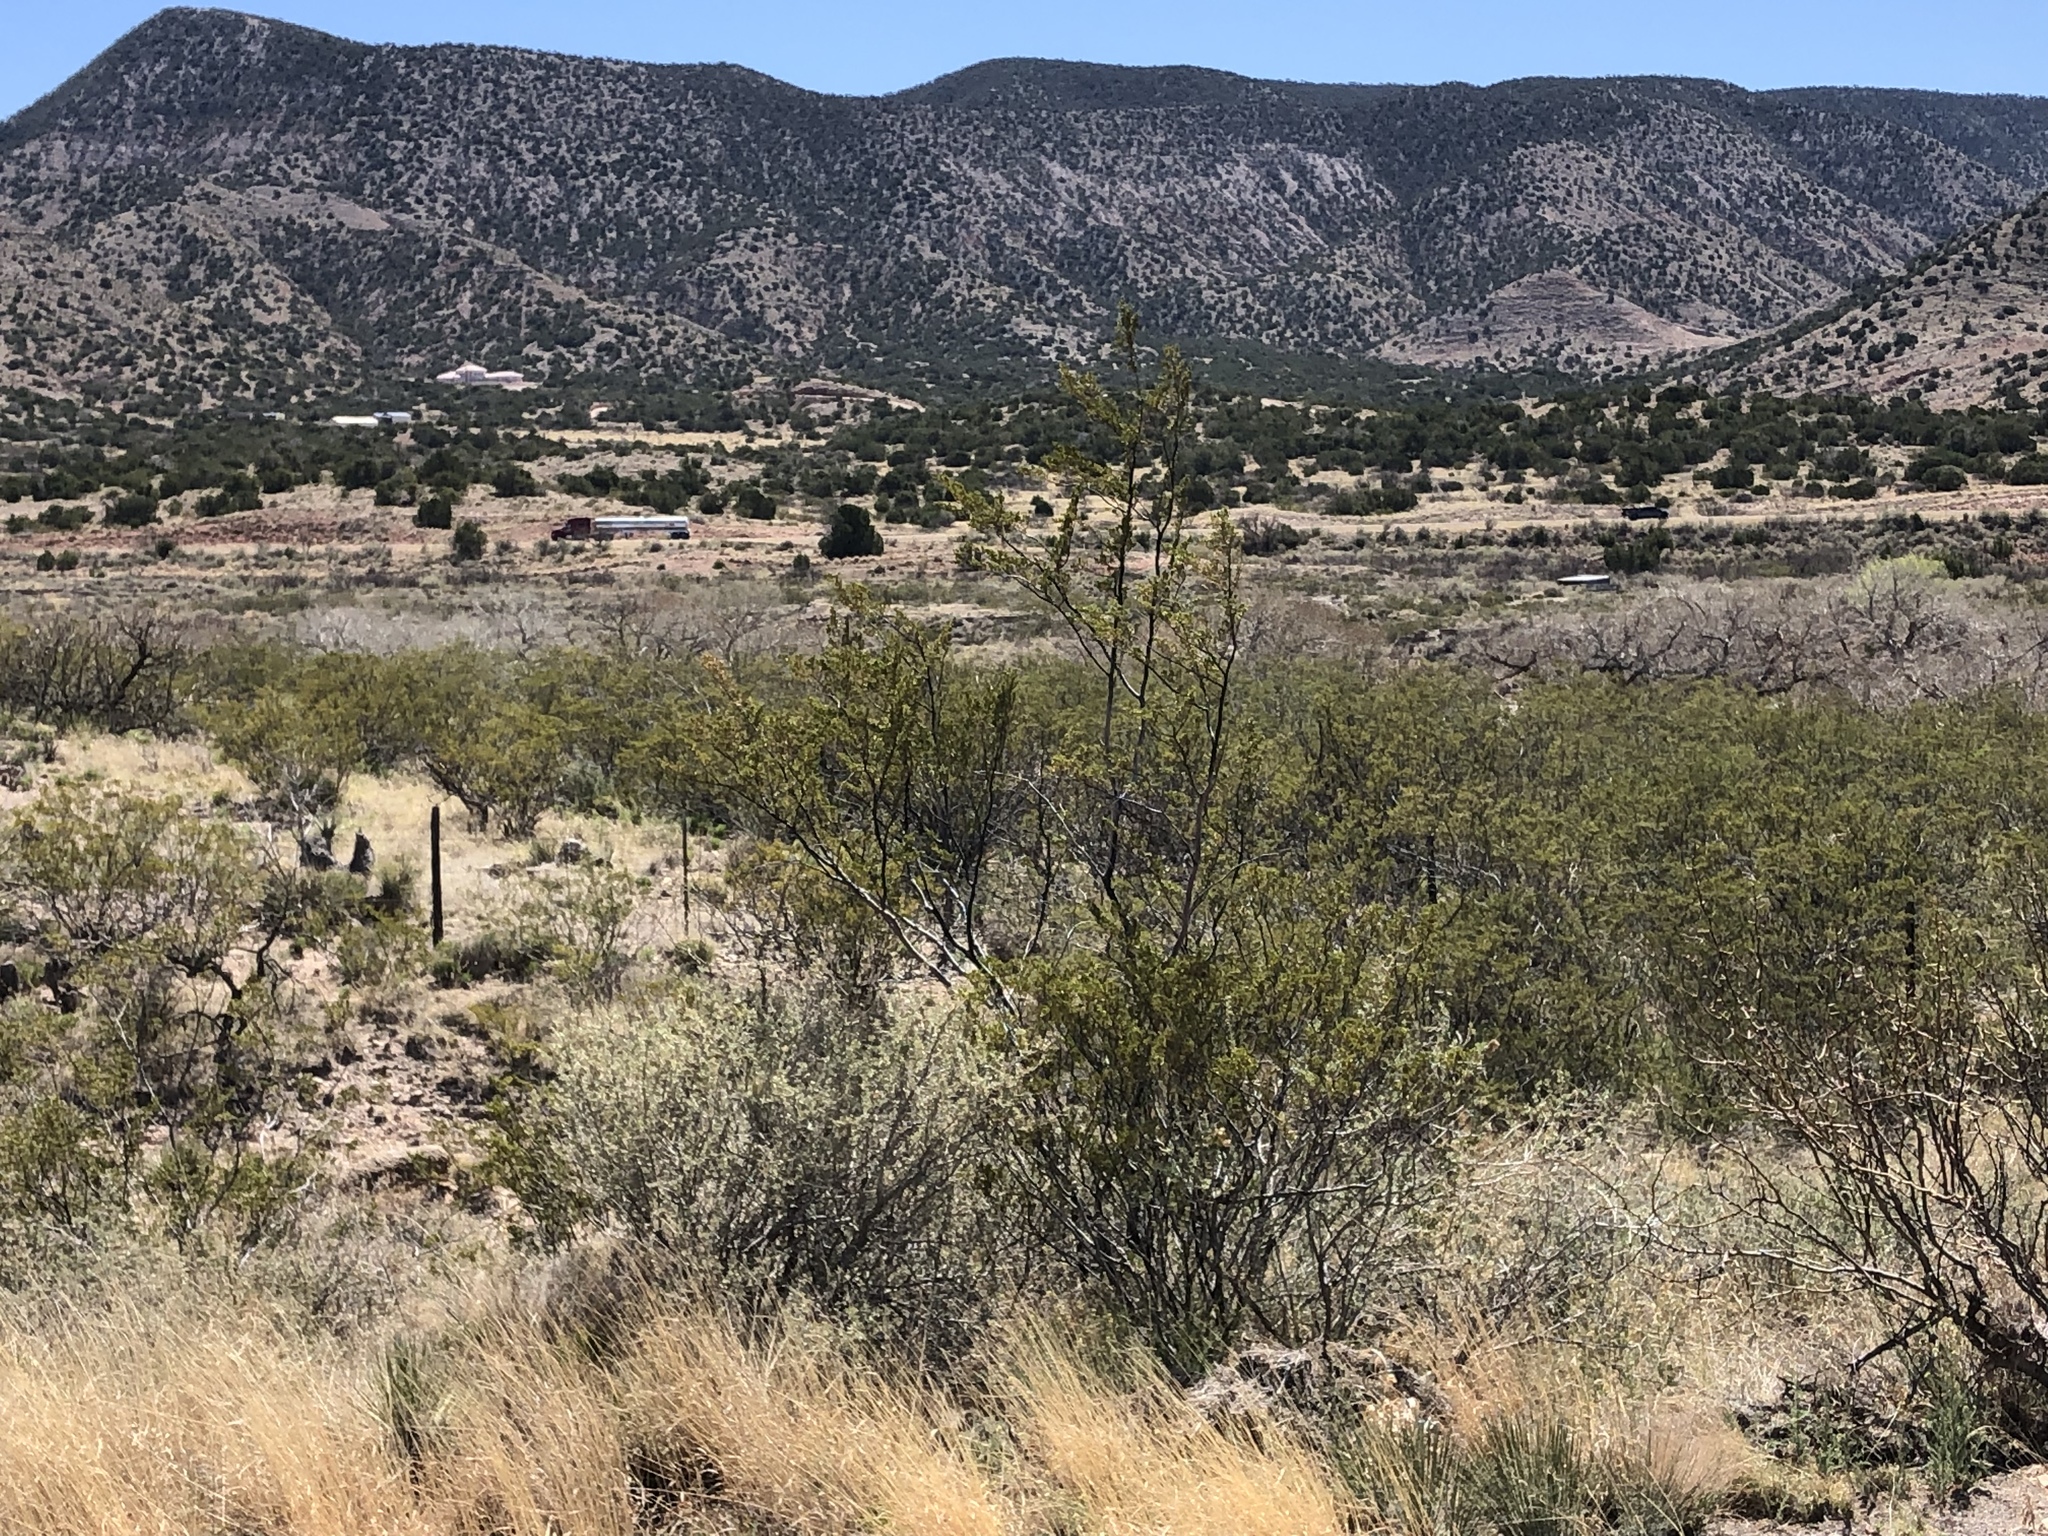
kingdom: Plantae
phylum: Tracheophyta
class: Magnoliopsida
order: Zygophyllales
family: Zygophyllaceae
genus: Larrea
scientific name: Larrea tridentata
